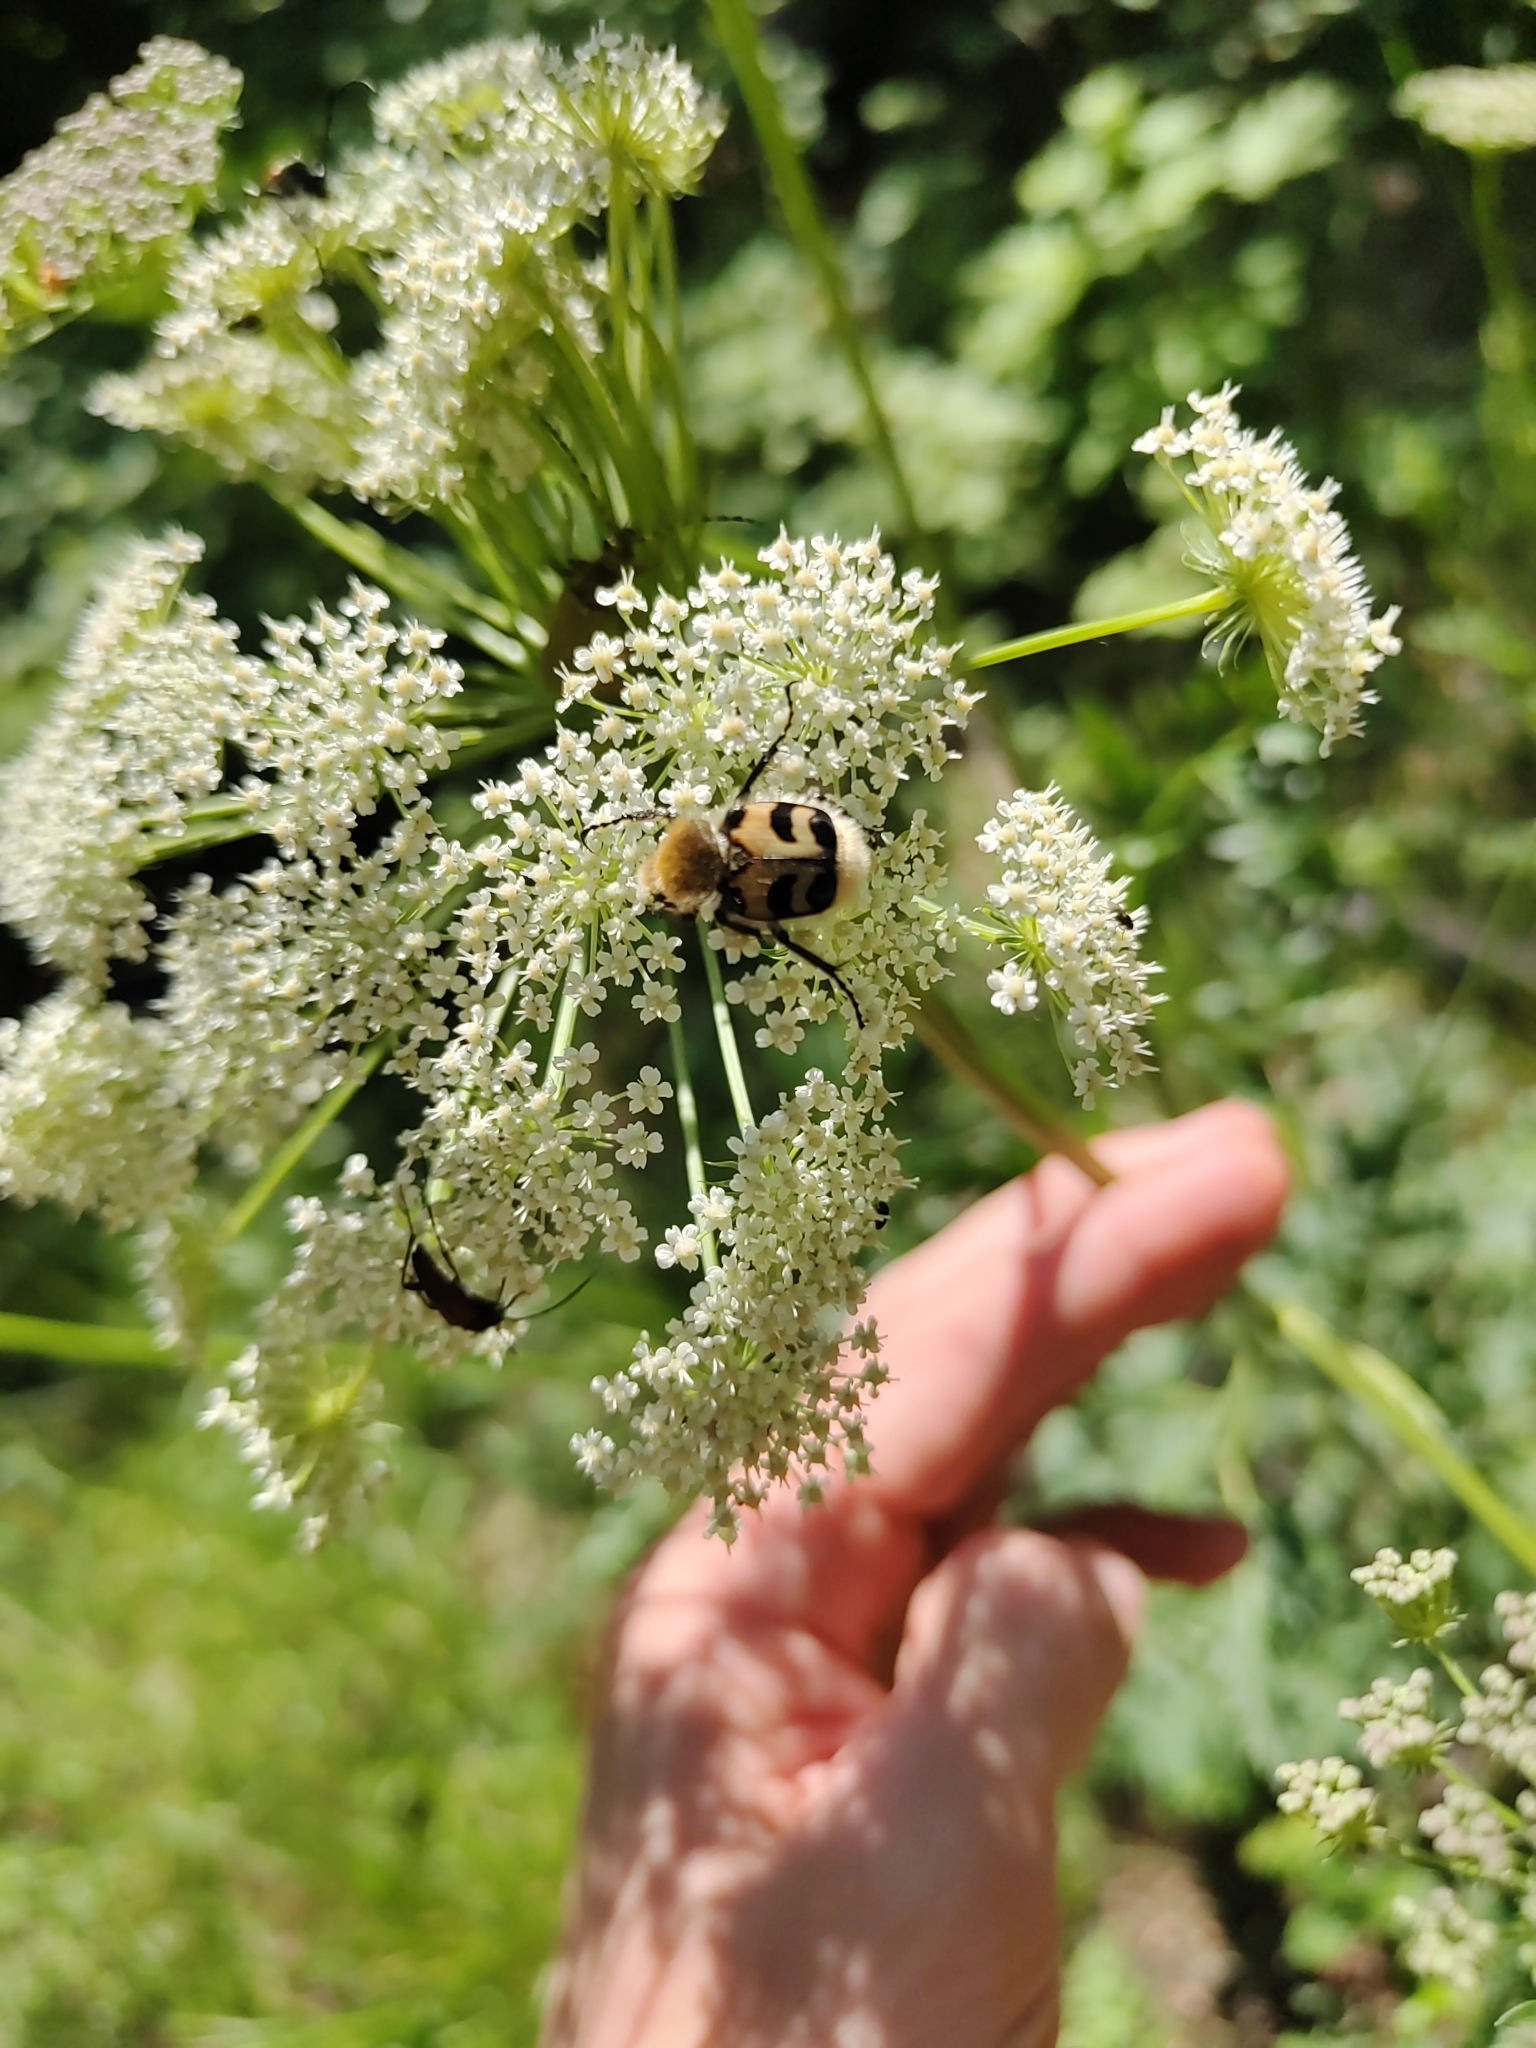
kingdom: Animalia
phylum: Arthropoda
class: Insecta
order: Coleoptera
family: Scarabaeidae
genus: Trichius
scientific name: Trichius fasciatus
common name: Bee beetle
